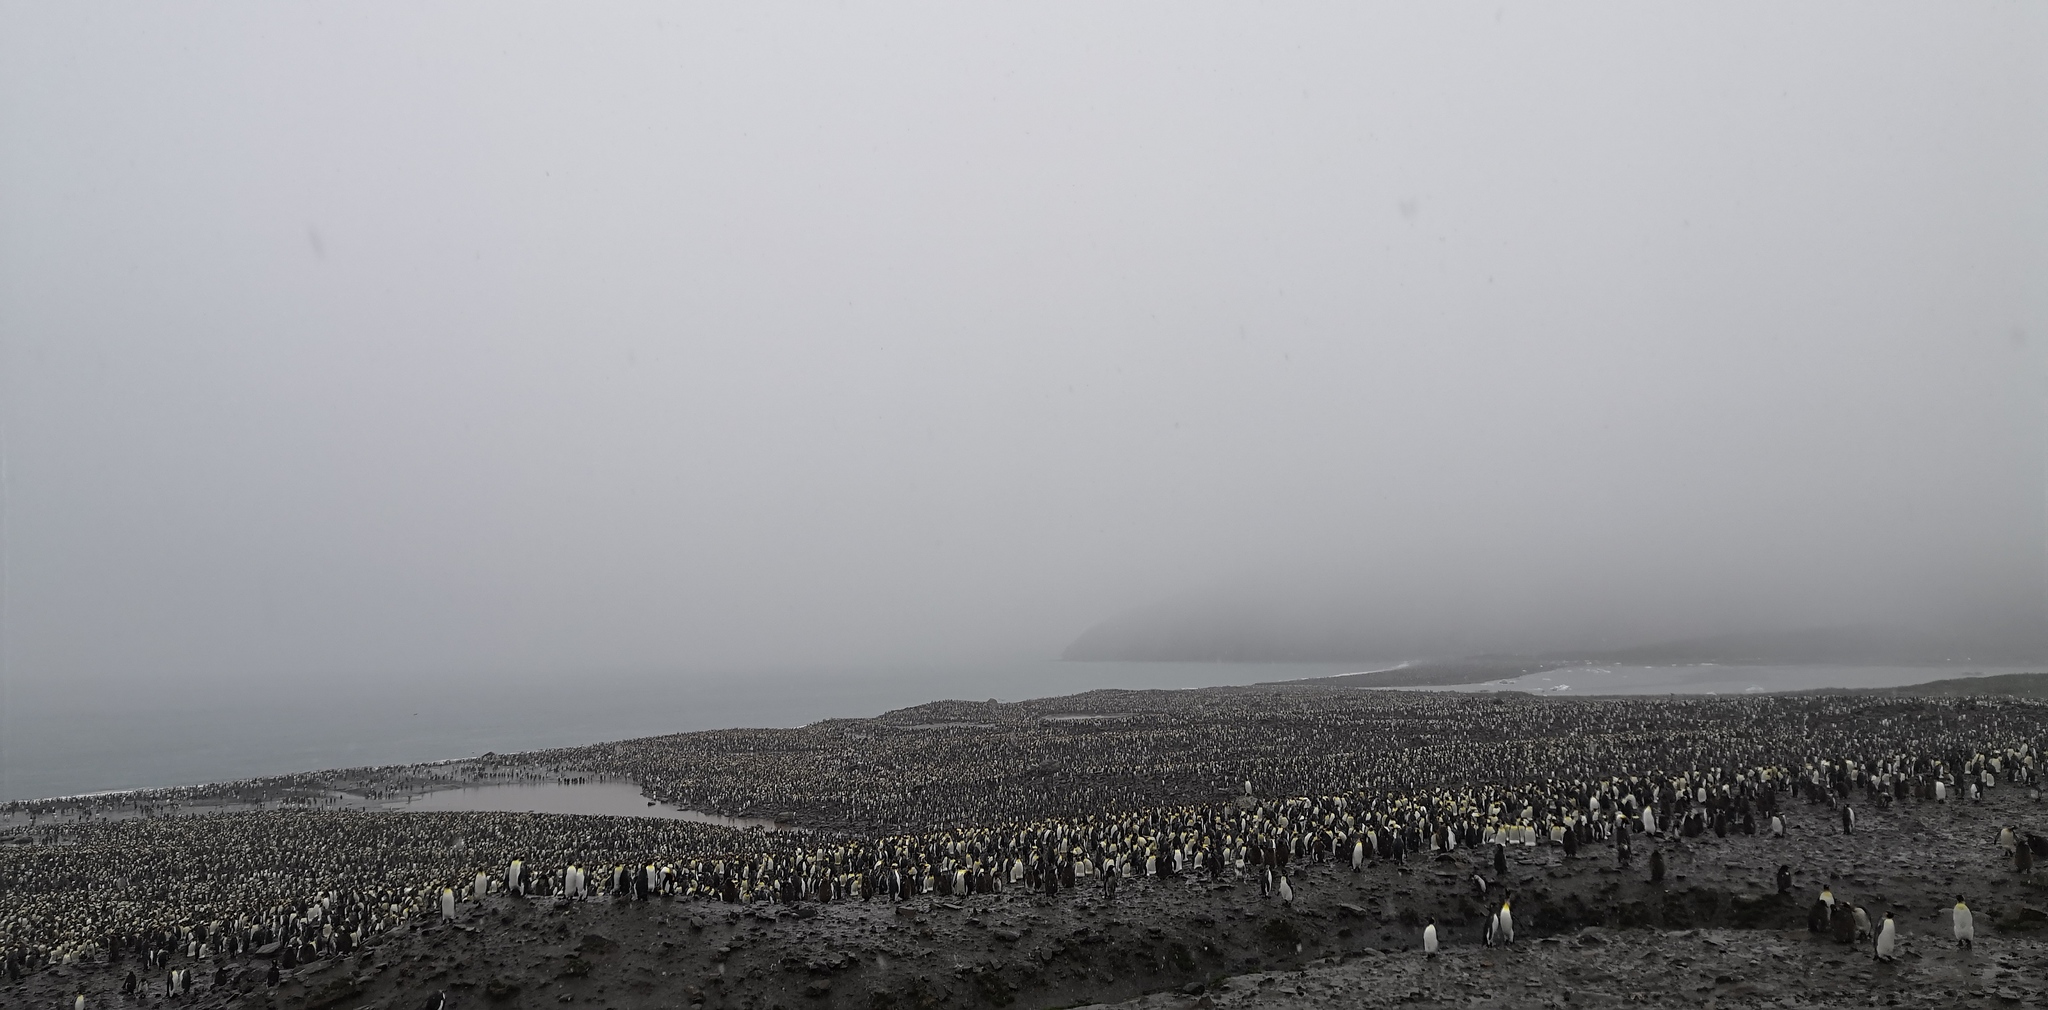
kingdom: Animalia
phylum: Chordata
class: Aves
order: Sphenisciformes
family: Spheniscidae
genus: Aptenodytes
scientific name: Aptenodytes patagonicus
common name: King penguin
